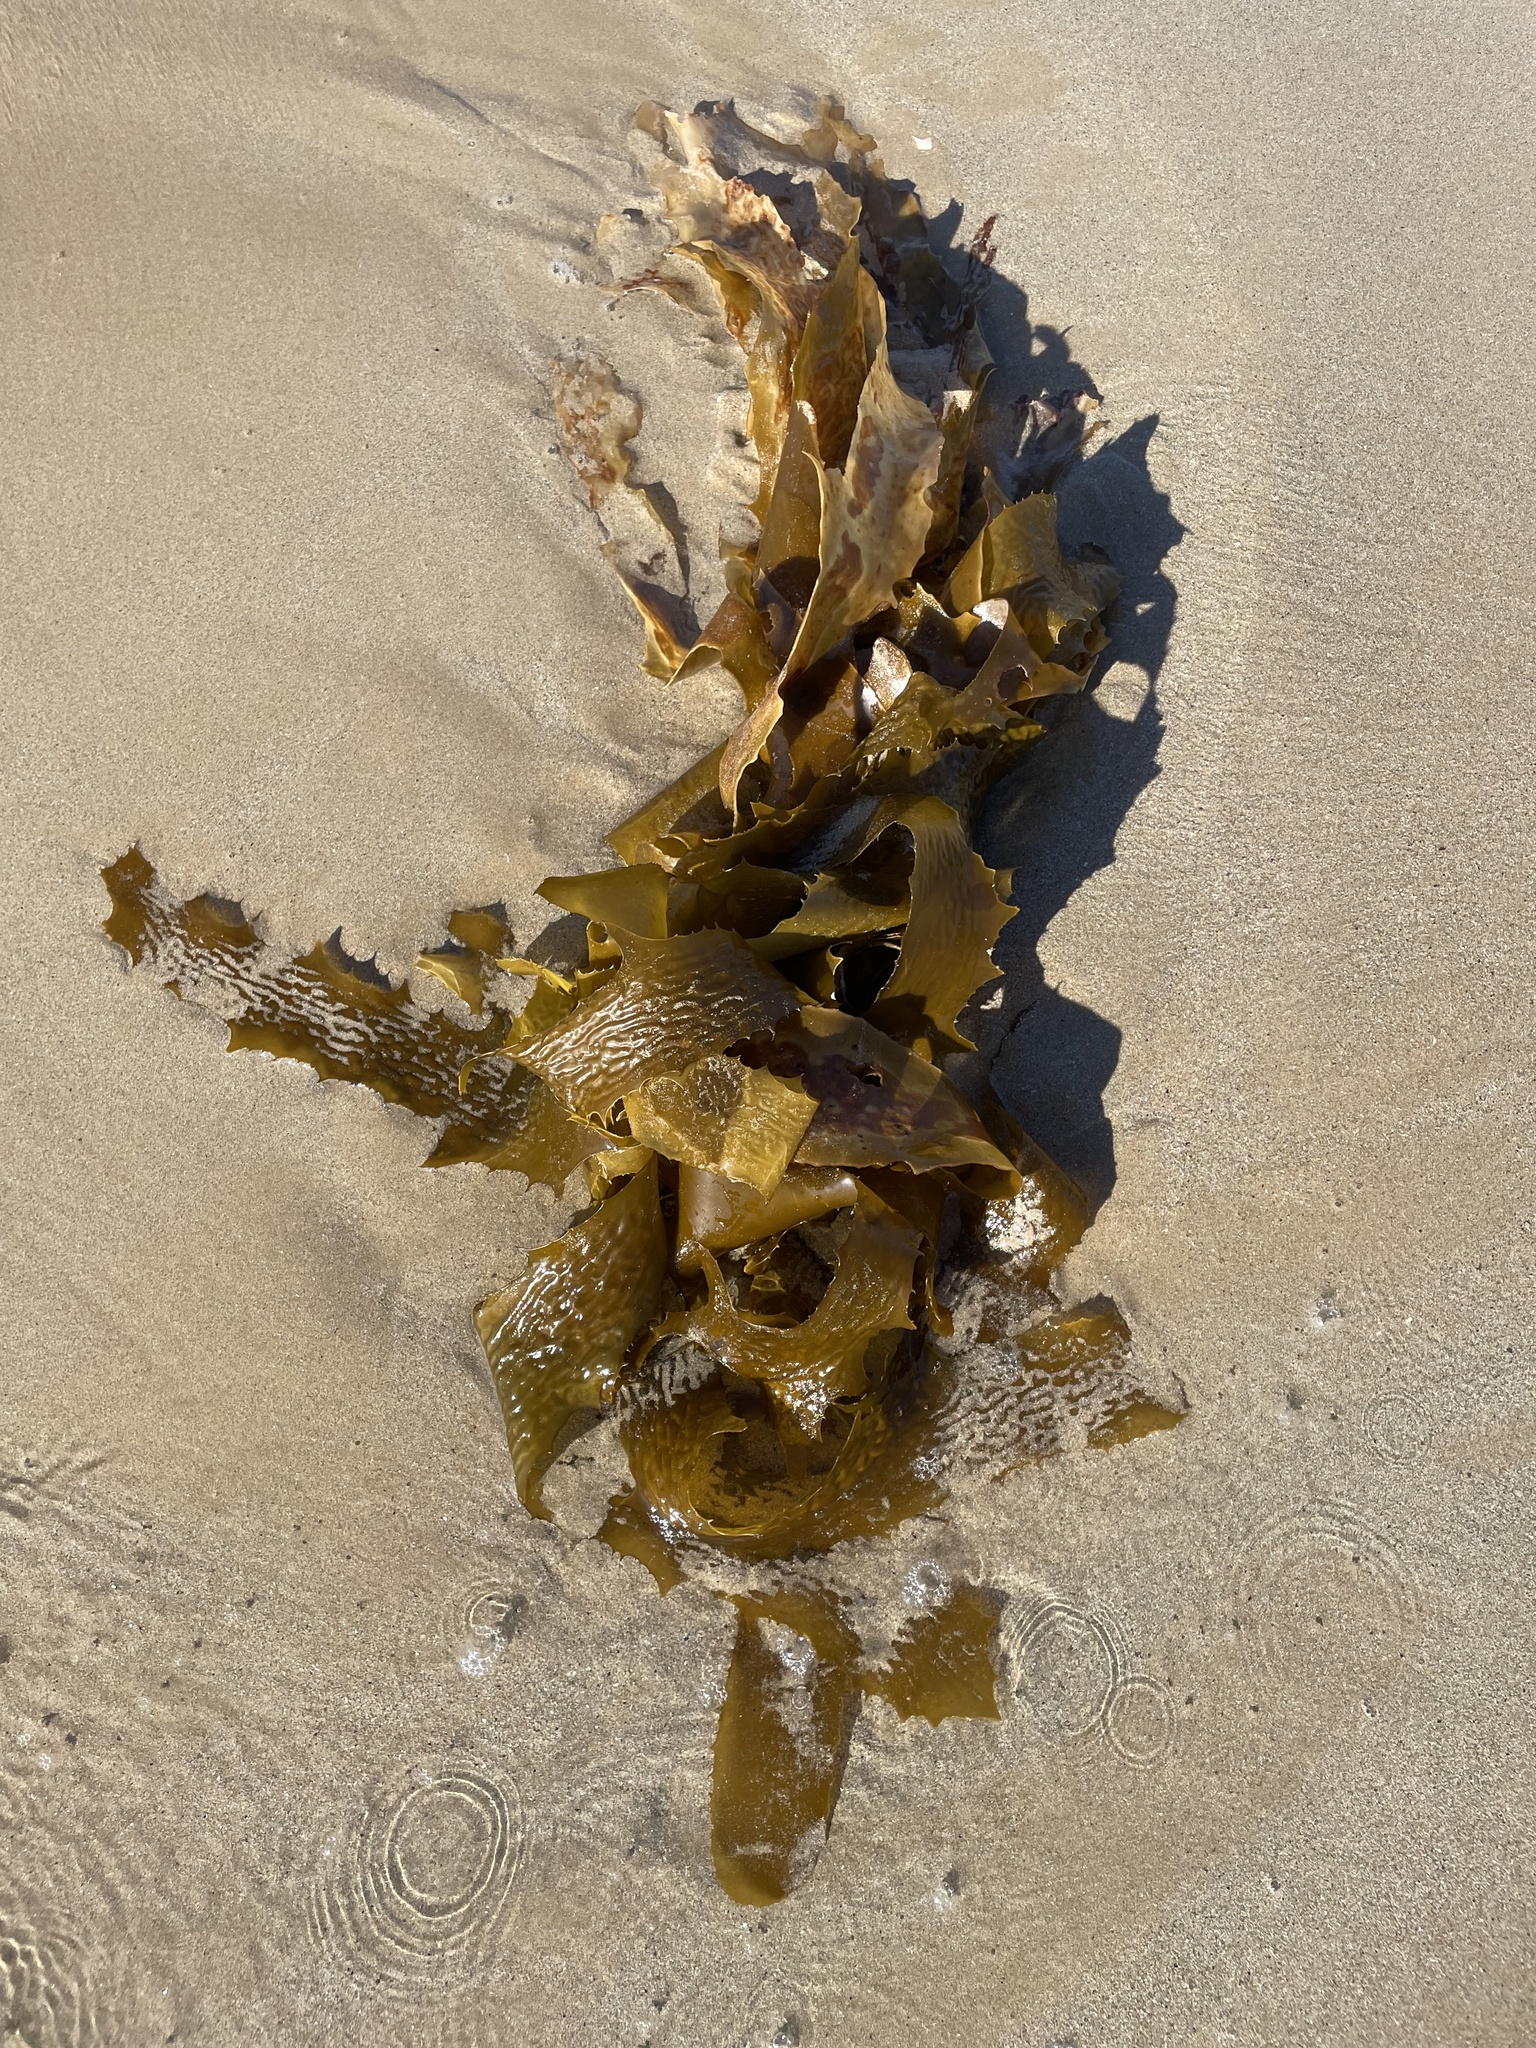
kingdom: Chromista
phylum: Ochrophyta
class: Phaeophyceae
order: Laminariales
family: Lessoniaceae
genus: Ecklonia
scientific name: Ecklonia radiata
